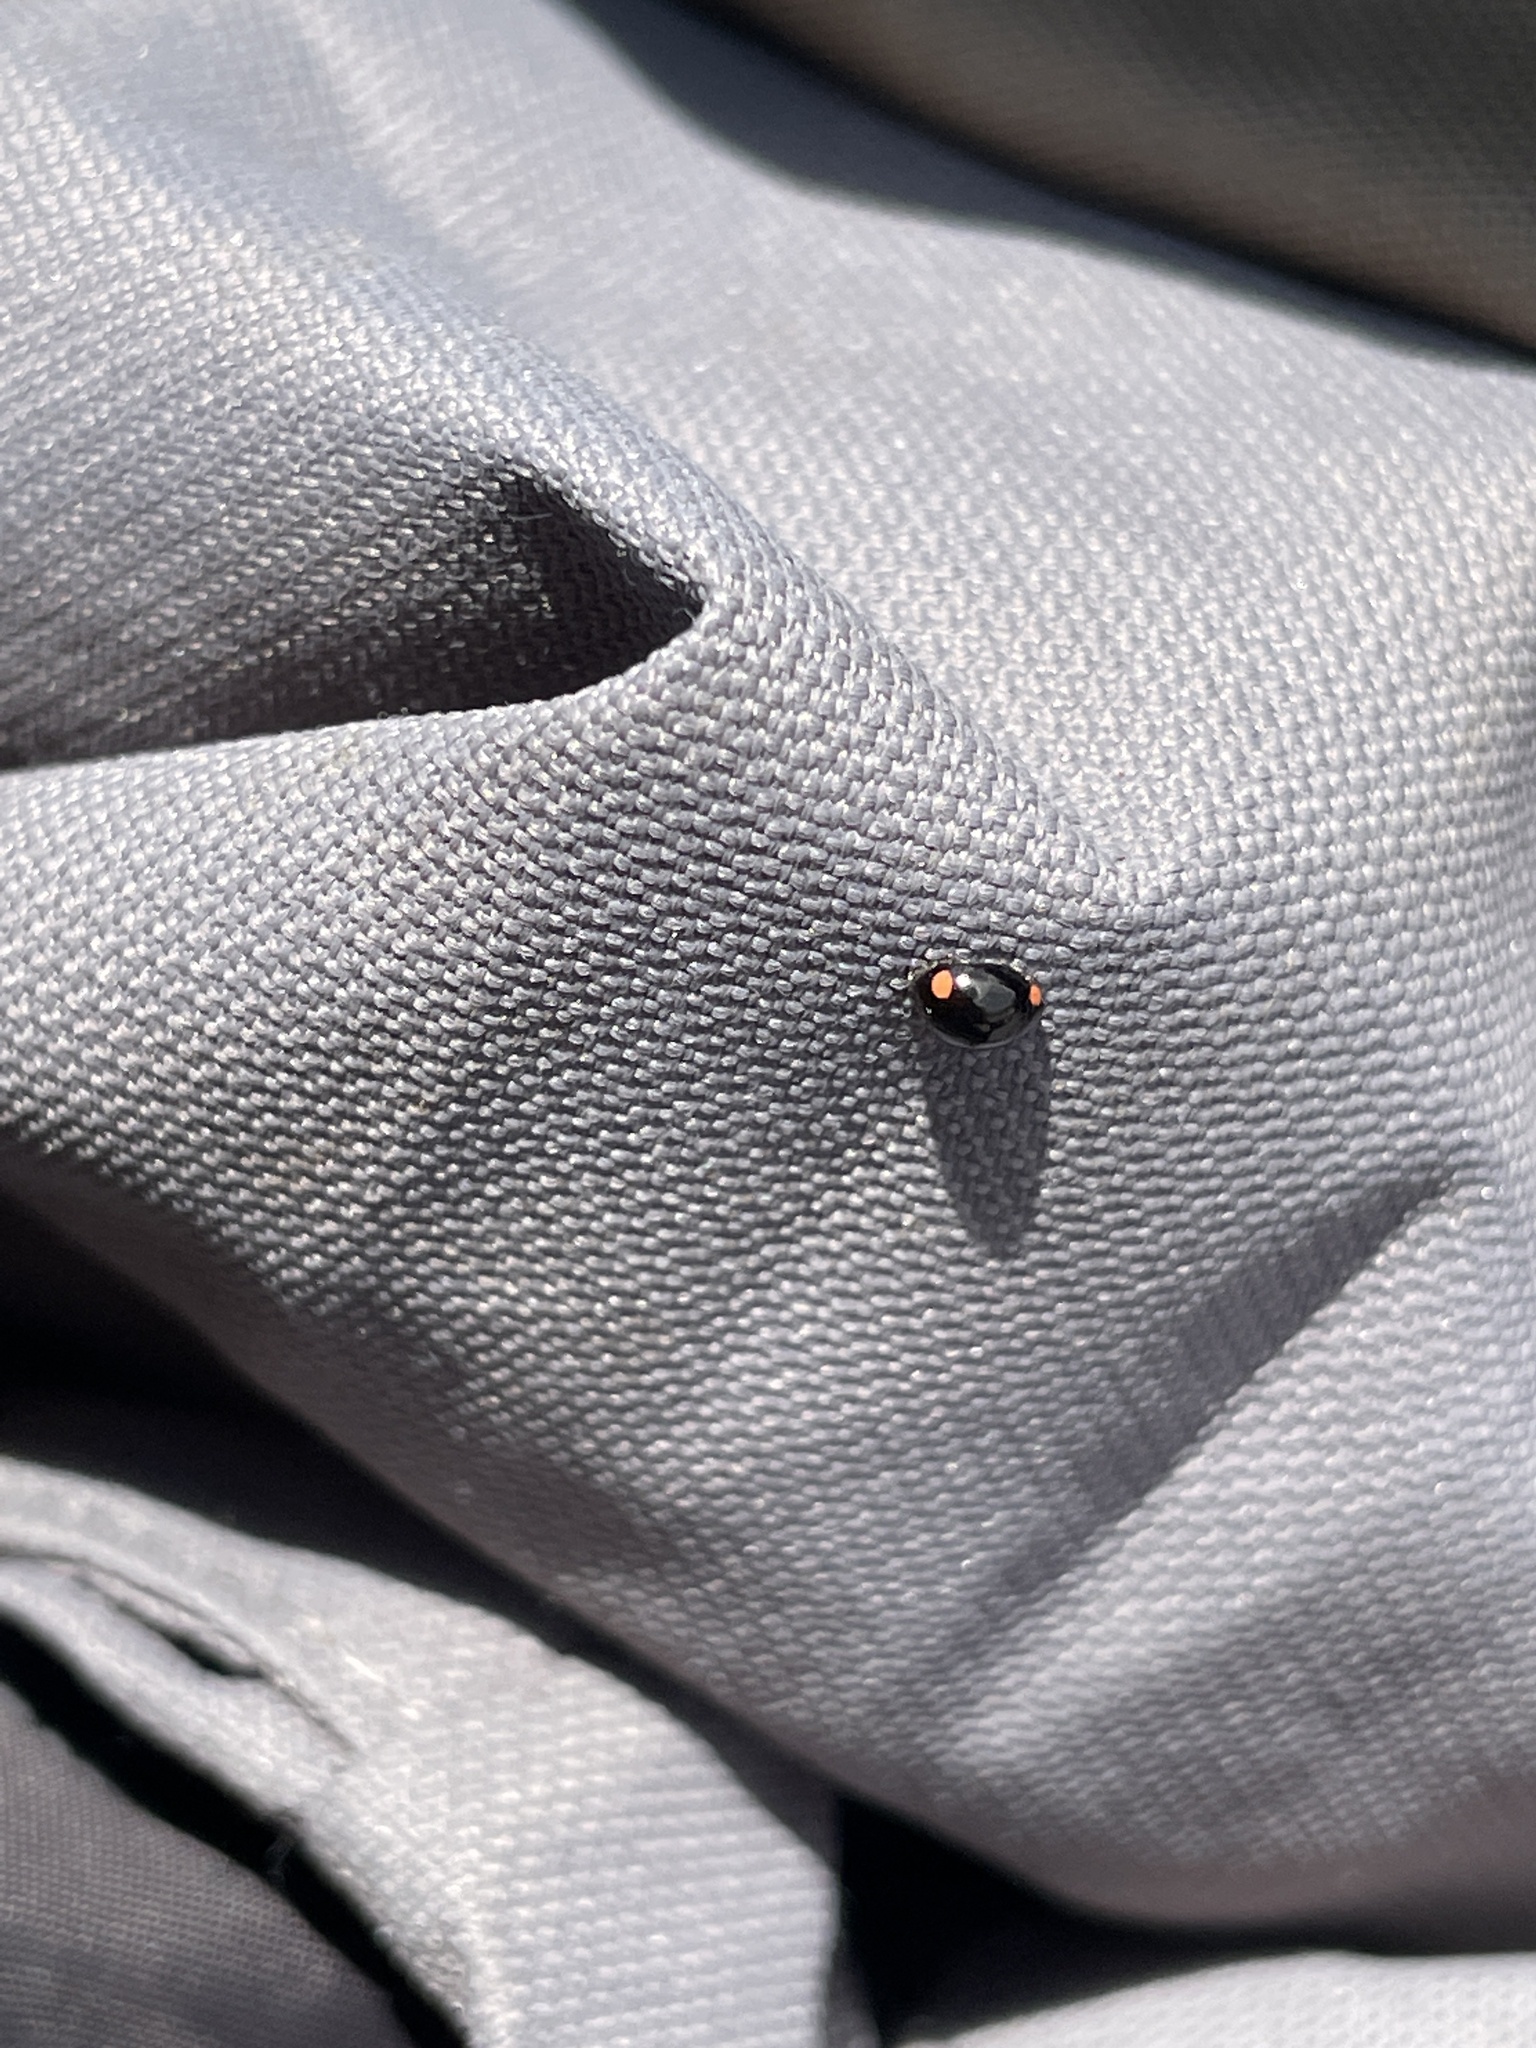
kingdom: Animalia
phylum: Arthropoda
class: Insecta
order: Coleoptera
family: Coccinellidae
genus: Hyperaspis
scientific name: Hyperaspis bigeminata
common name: Bigeminate sigil lady beetle
